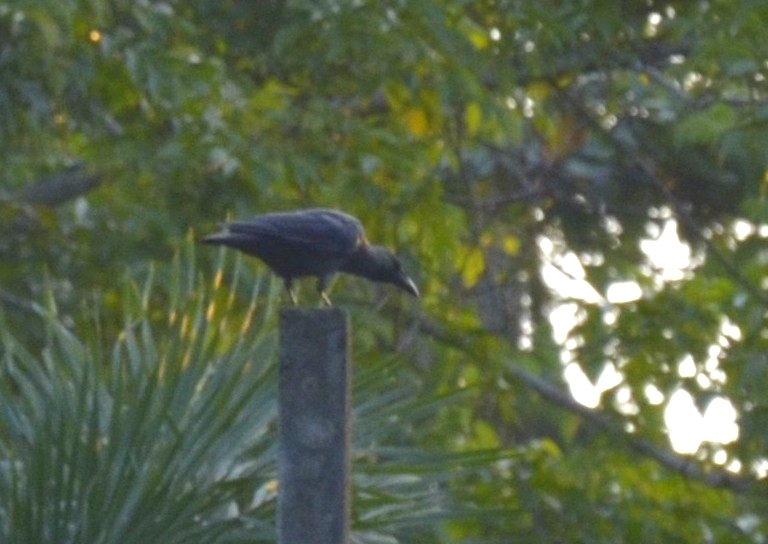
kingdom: Animalia
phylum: Chordata
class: Aves
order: Passeriformes
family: Corvidae
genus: Corvus
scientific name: Corvus splendens
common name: House crow
